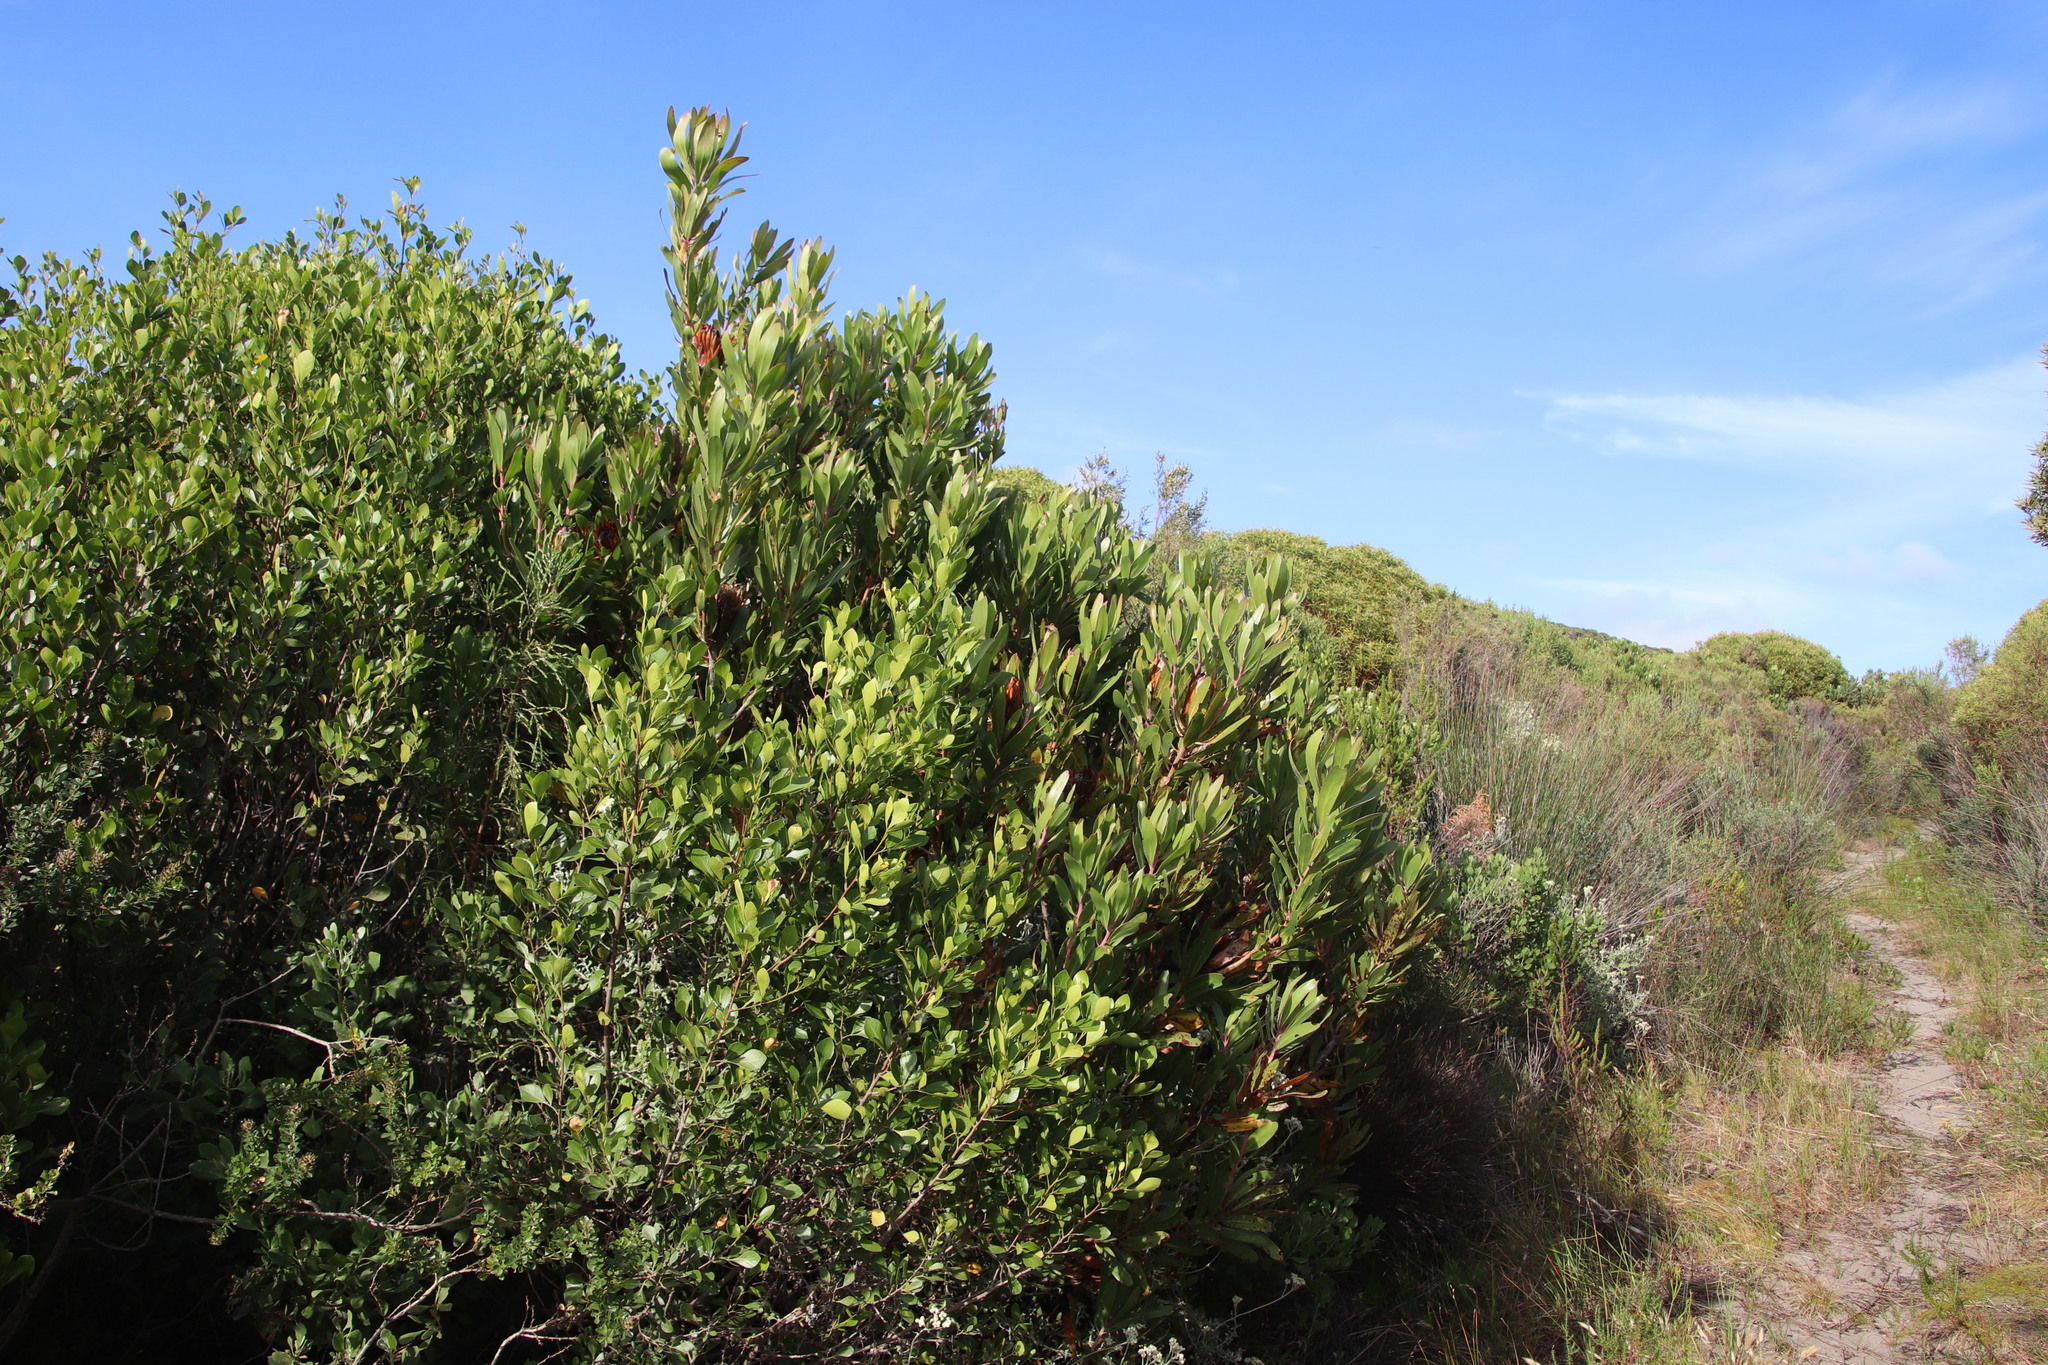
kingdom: Plantae
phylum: Tracheophyta
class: Magnoliopsida
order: Proteales
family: Proteaceae
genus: Protea
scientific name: Protea obtusifolia
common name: Bredasdorp sugarbush
